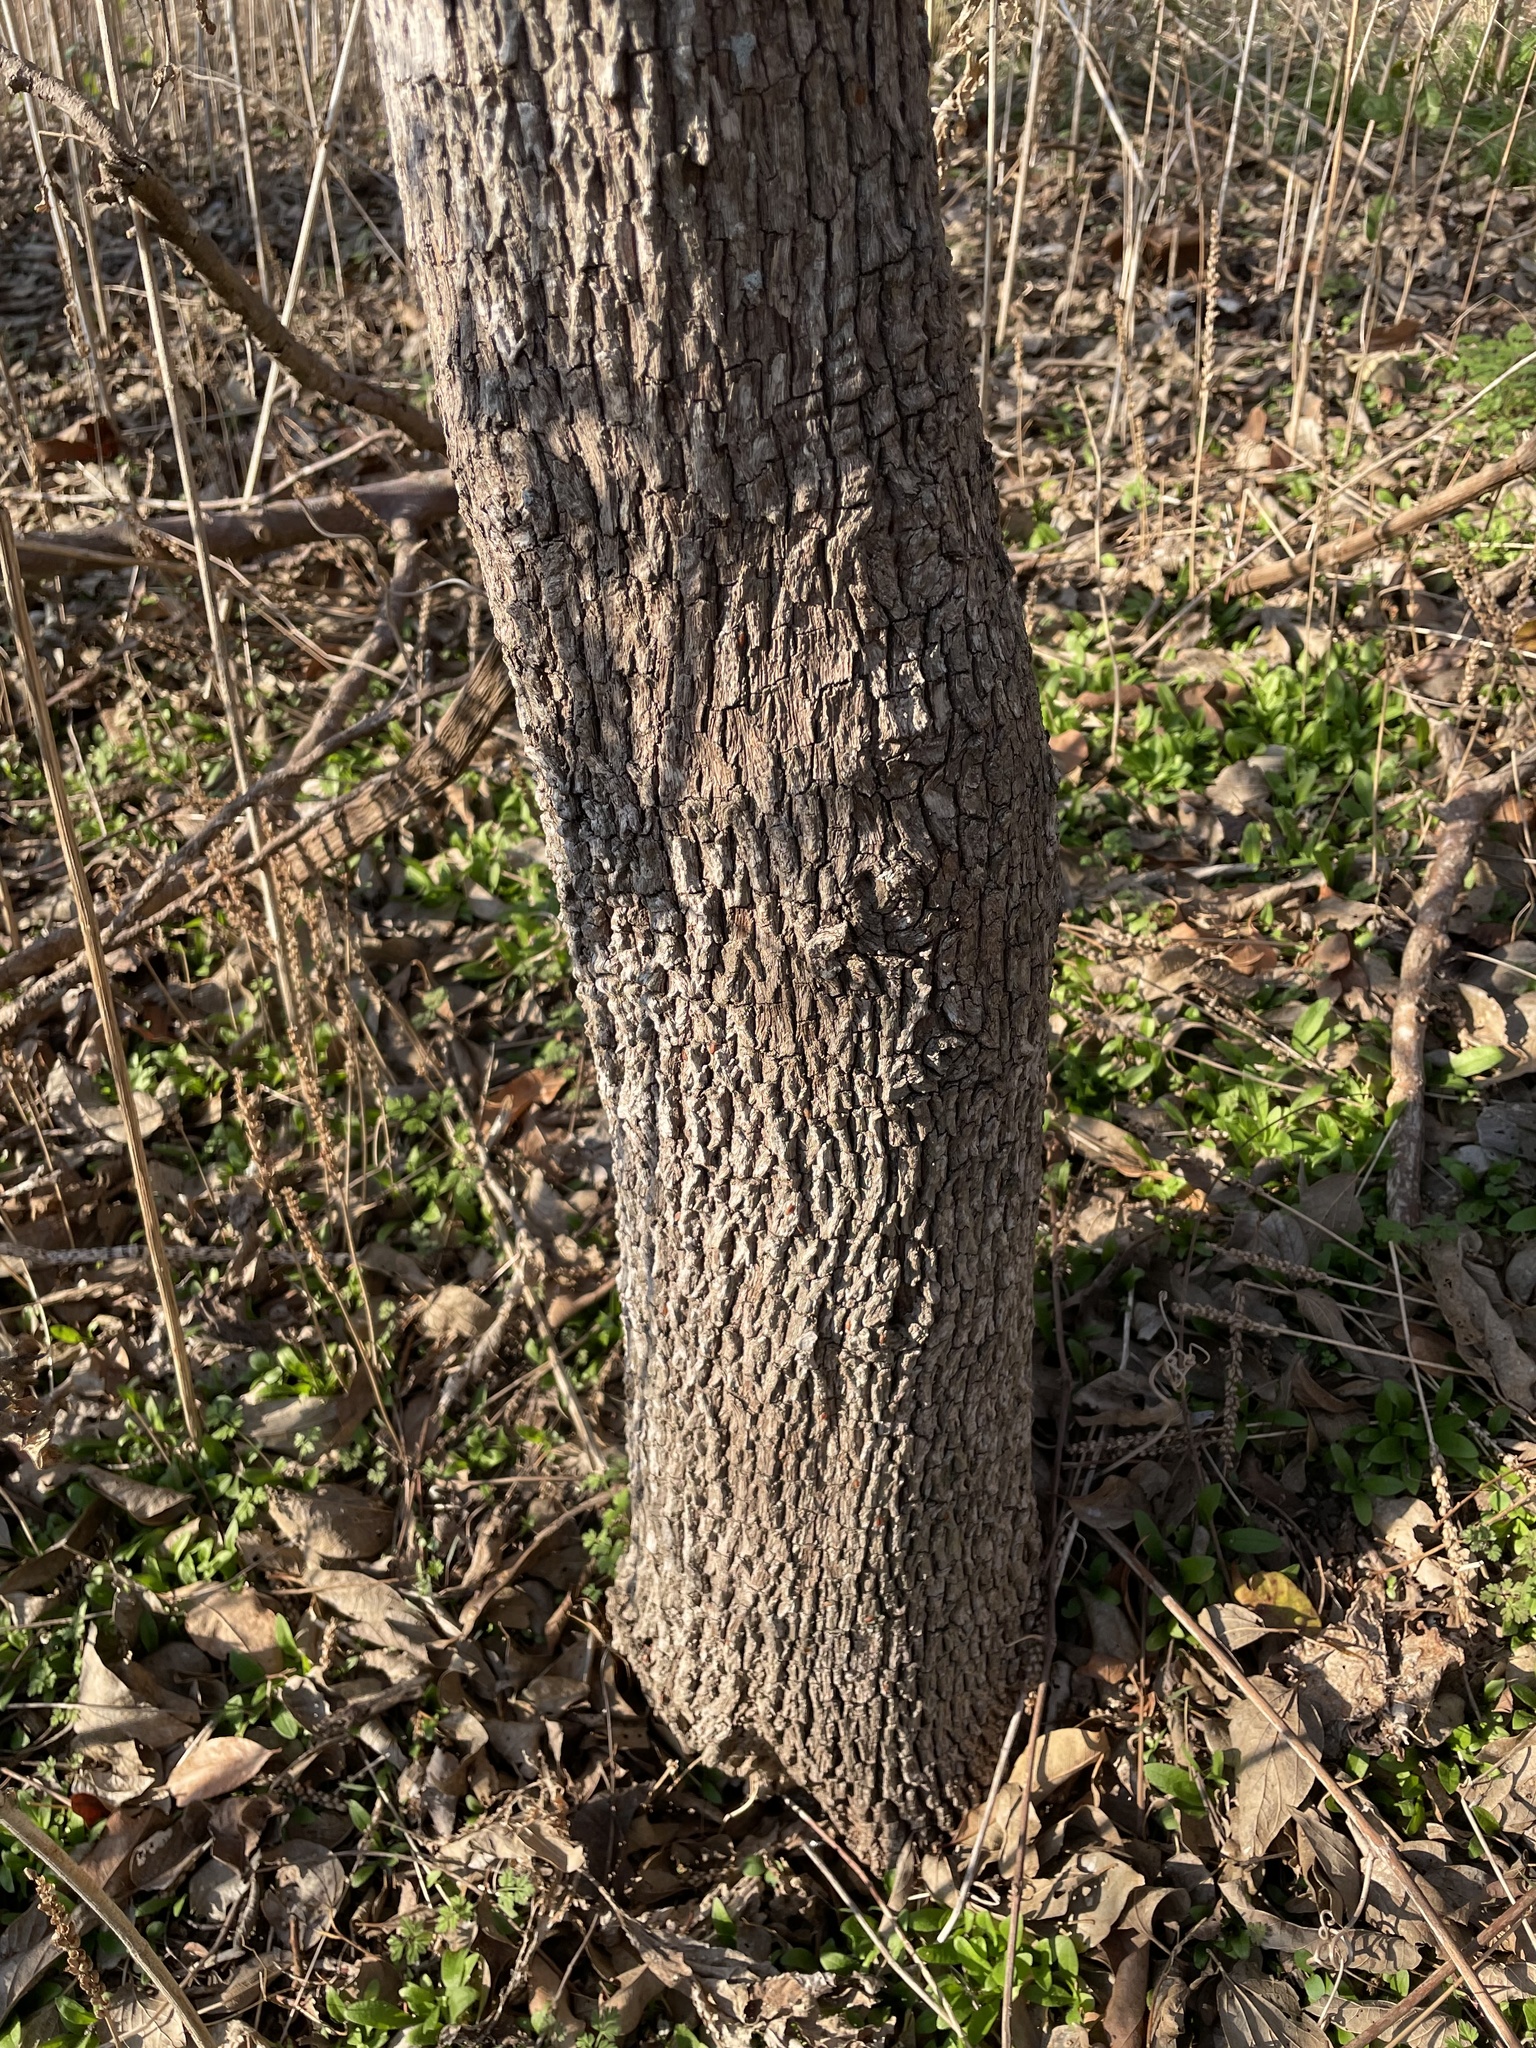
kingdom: Plantae
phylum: Tracheophyta
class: Magnoliopsida
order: Ericales
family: Sapotaceae
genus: Sideroxylon
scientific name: Sideroxylon lanuginosum
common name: Chittamwood
